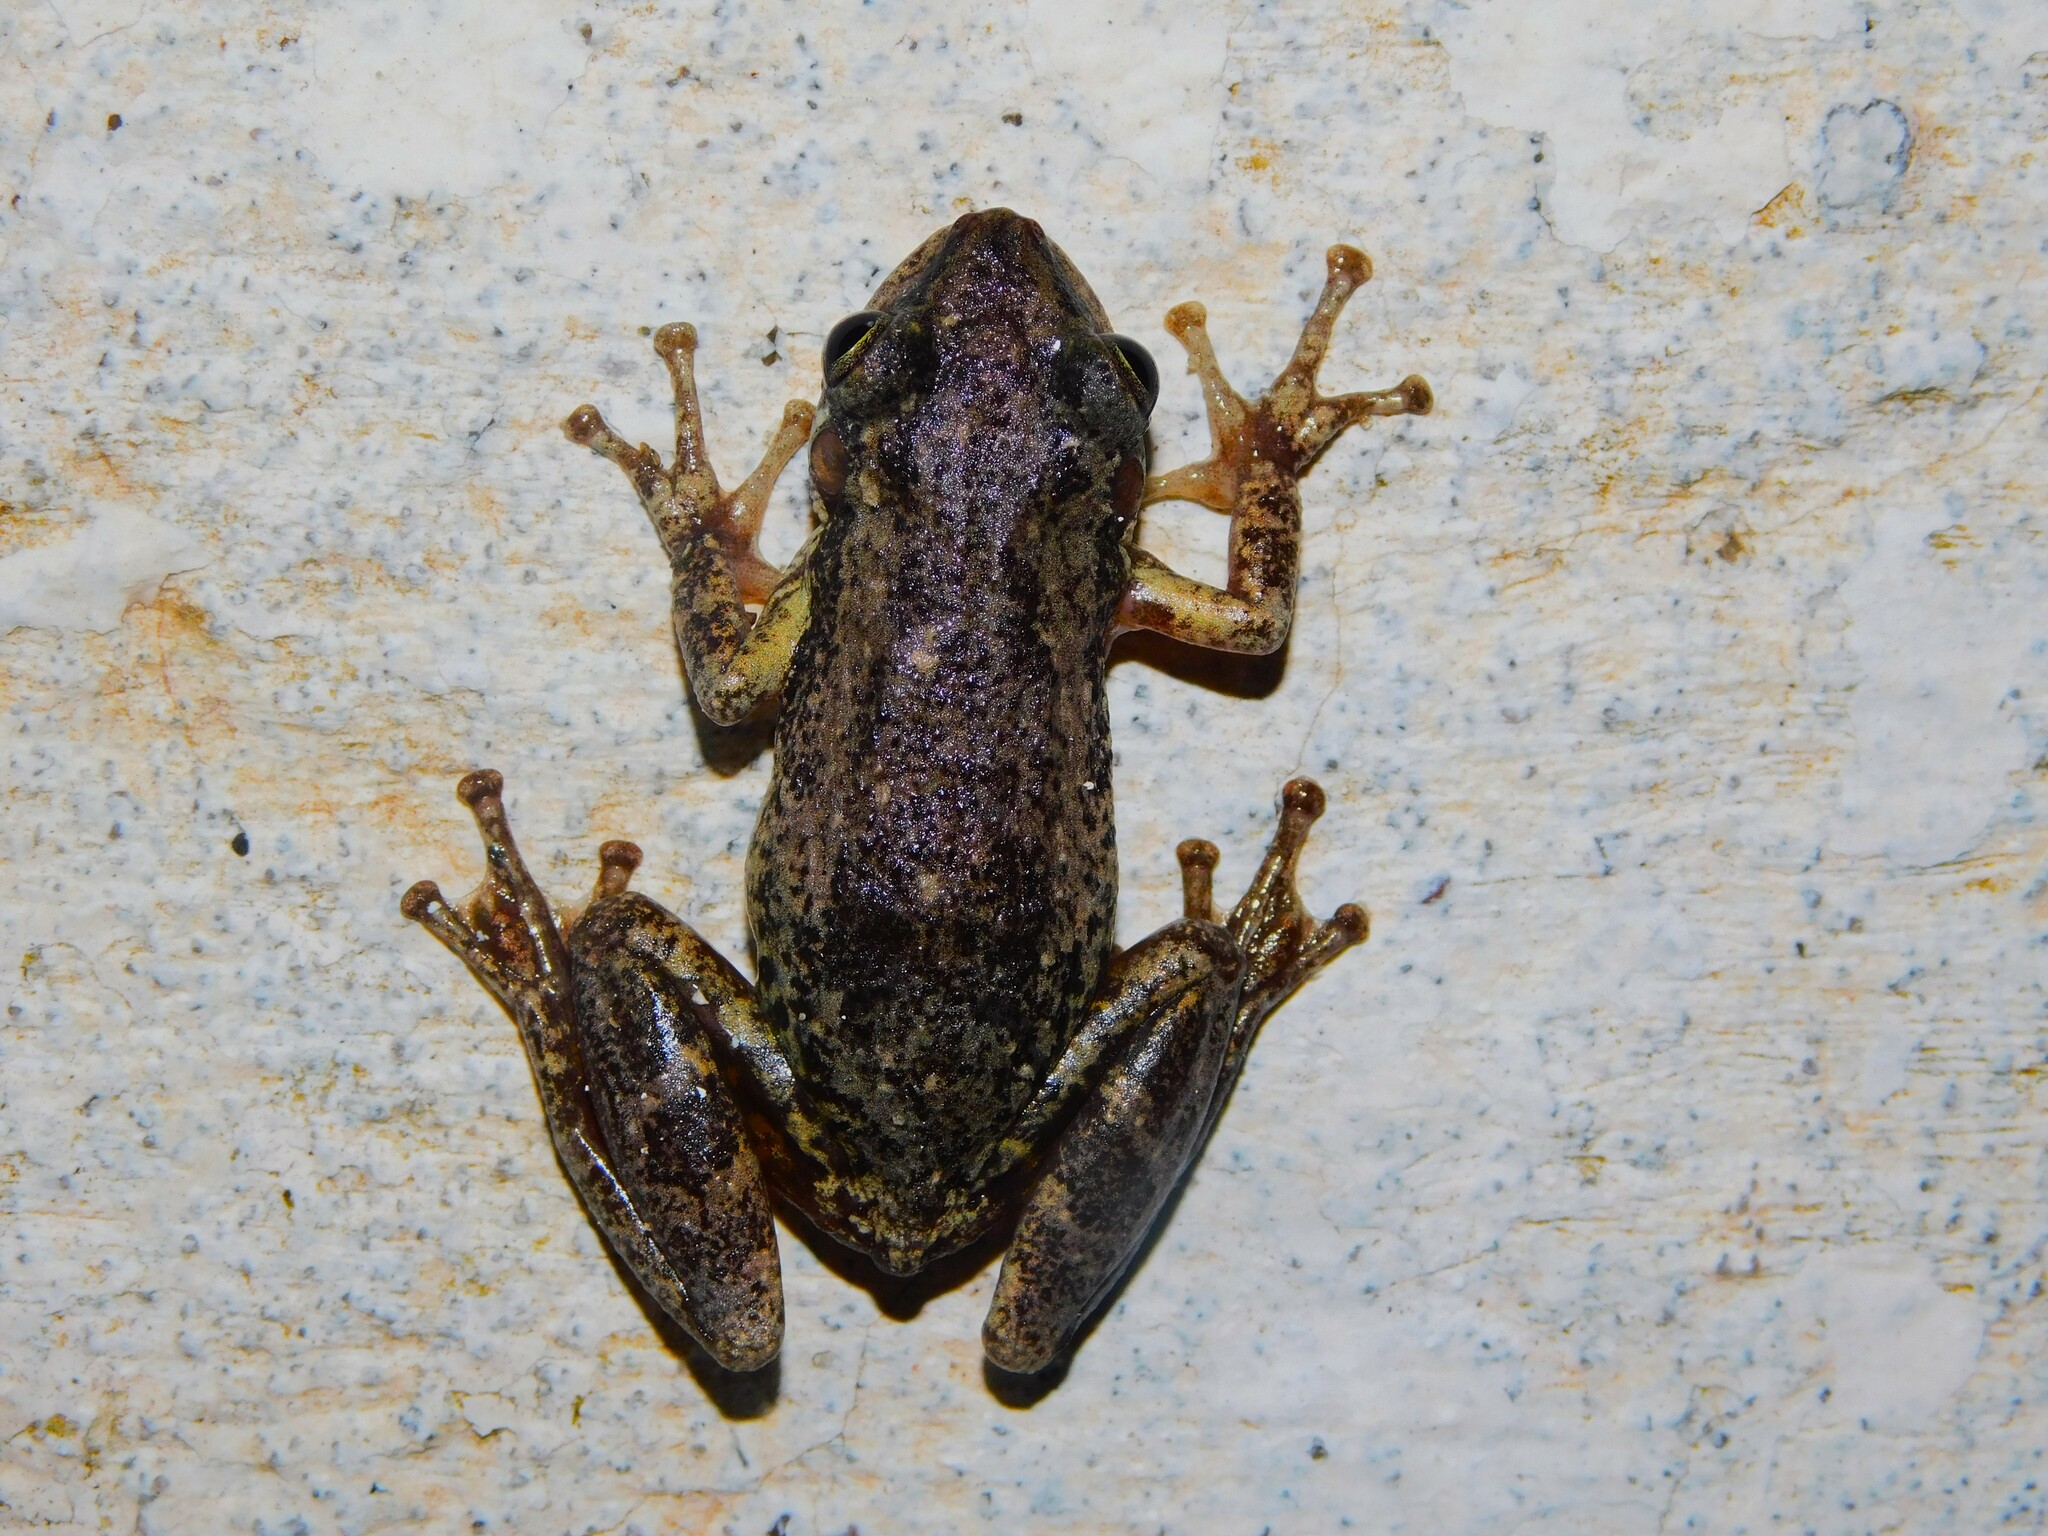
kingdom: Animalia
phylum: Chordata
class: Amphibia
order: Anura
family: Hylidae
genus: Scinax
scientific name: Scinax nasicus
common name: Lesser snouted treefrog
